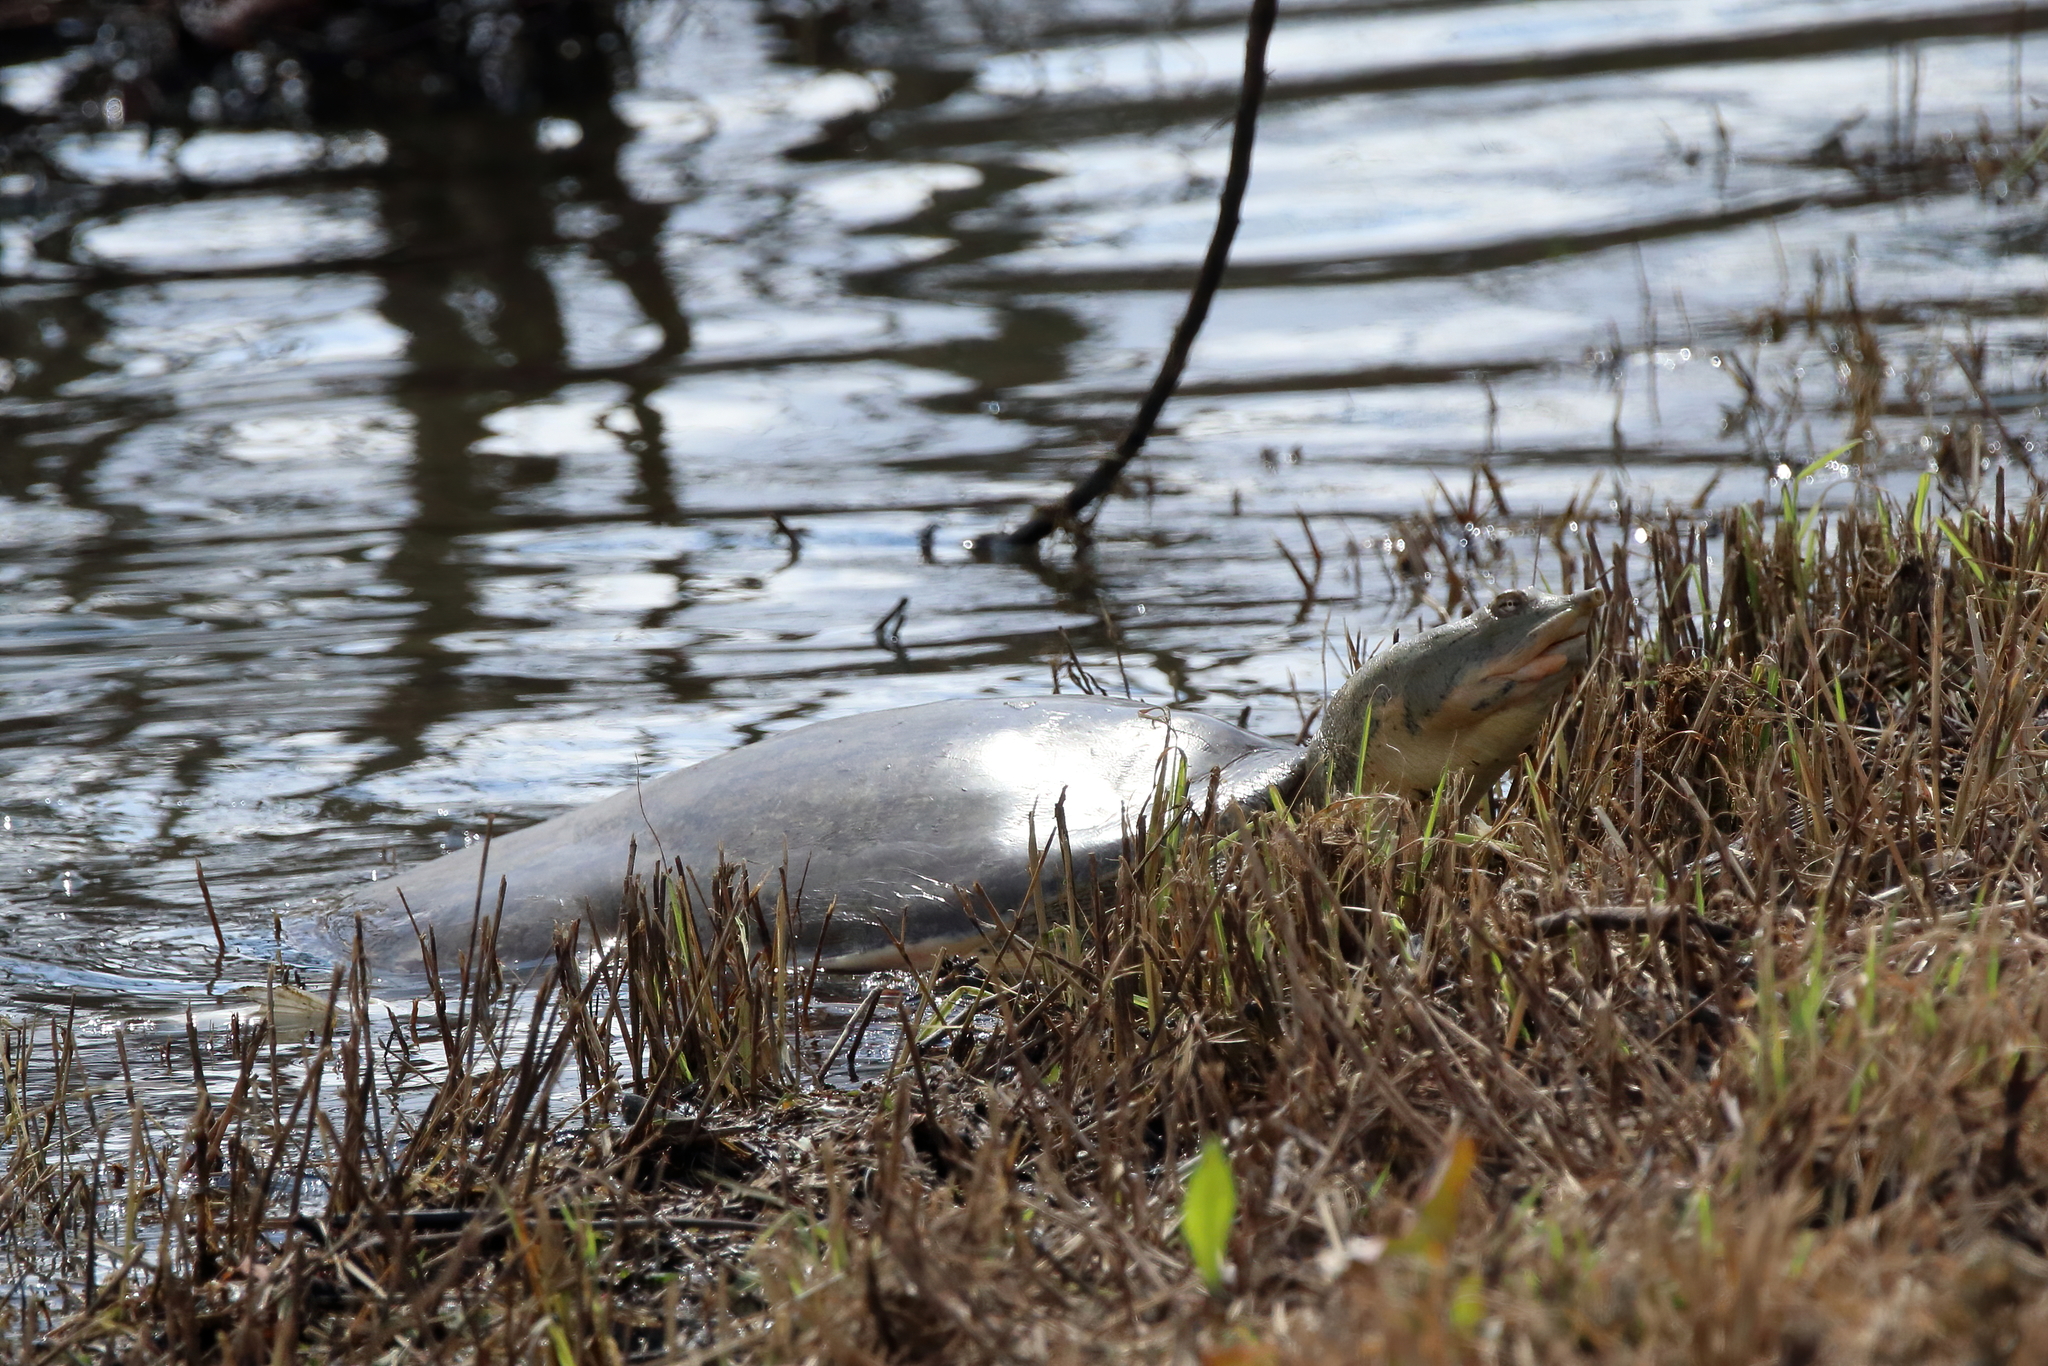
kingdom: Animalia
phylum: Chordata
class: Testudines
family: Trionychidae
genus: Apalone
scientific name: Apalone spinifera
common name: Spiny softshell turtle
